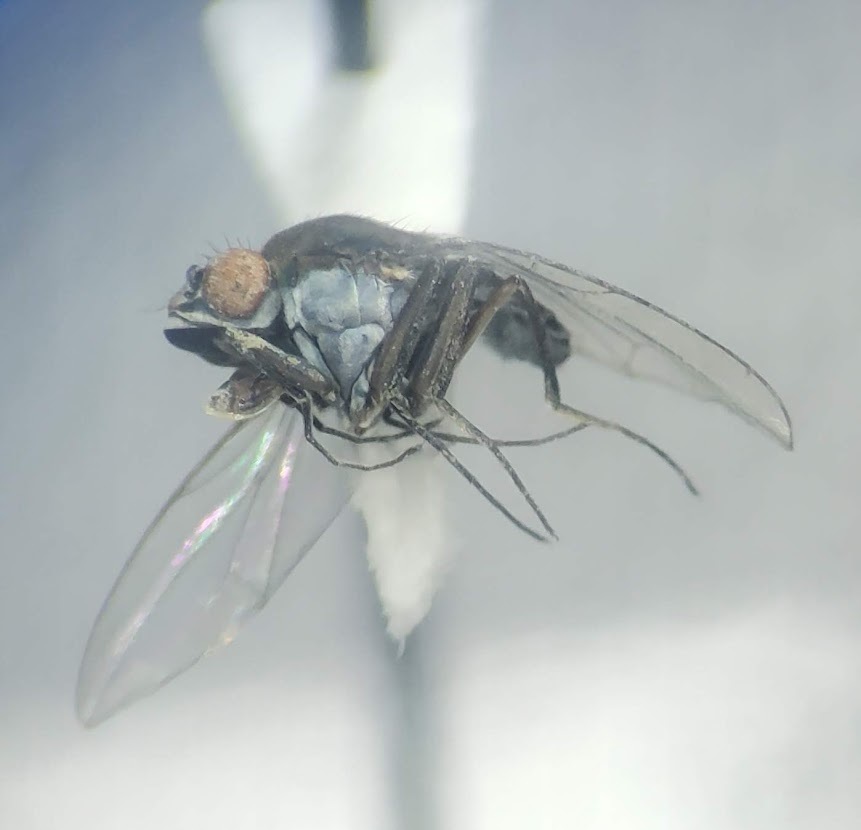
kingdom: Animalia
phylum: Arthropoda
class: Insecta
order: Diptera
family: Ephydridae
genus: Brachydeutera
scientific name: Brachydeutera argentata
